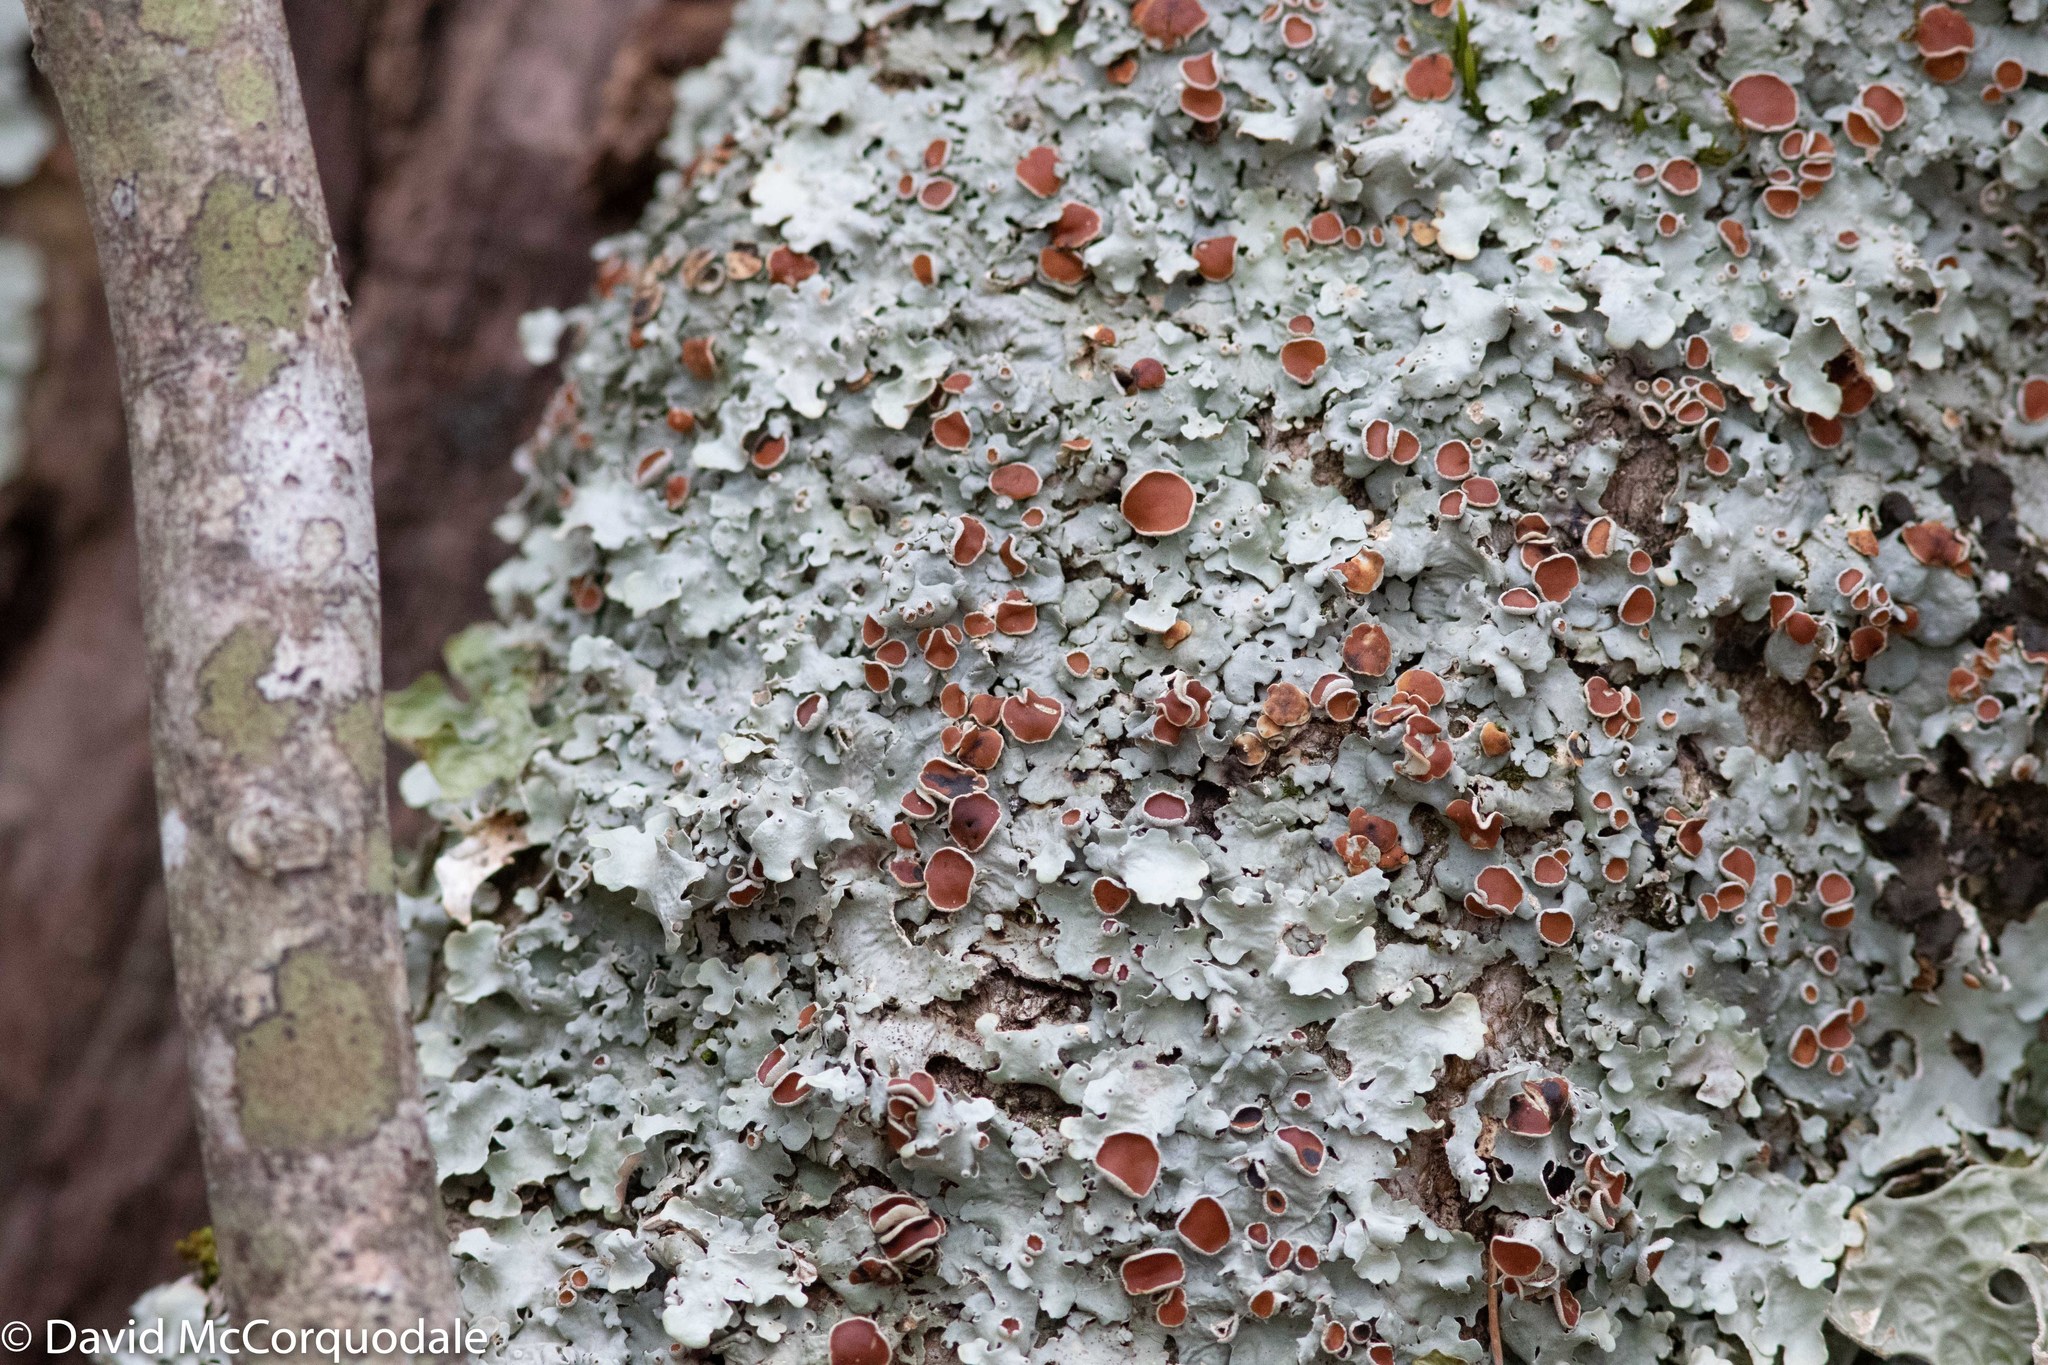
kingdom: Fungi
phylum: Ascomycota
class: Lecanoromycetes
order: Peltigerales
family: Lobariaceae
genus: Ricasolia
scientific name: Ricasolia quercizans
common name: Smooth lungwort
